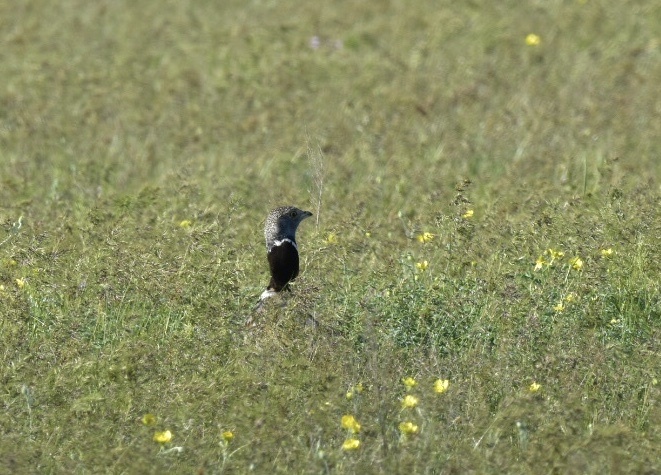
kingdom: Animalia
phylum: Chordata
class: Aves
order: Otidiformes
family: Otididae
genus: Tetrax
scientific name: Tetrax tetrax
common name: Little bustard
